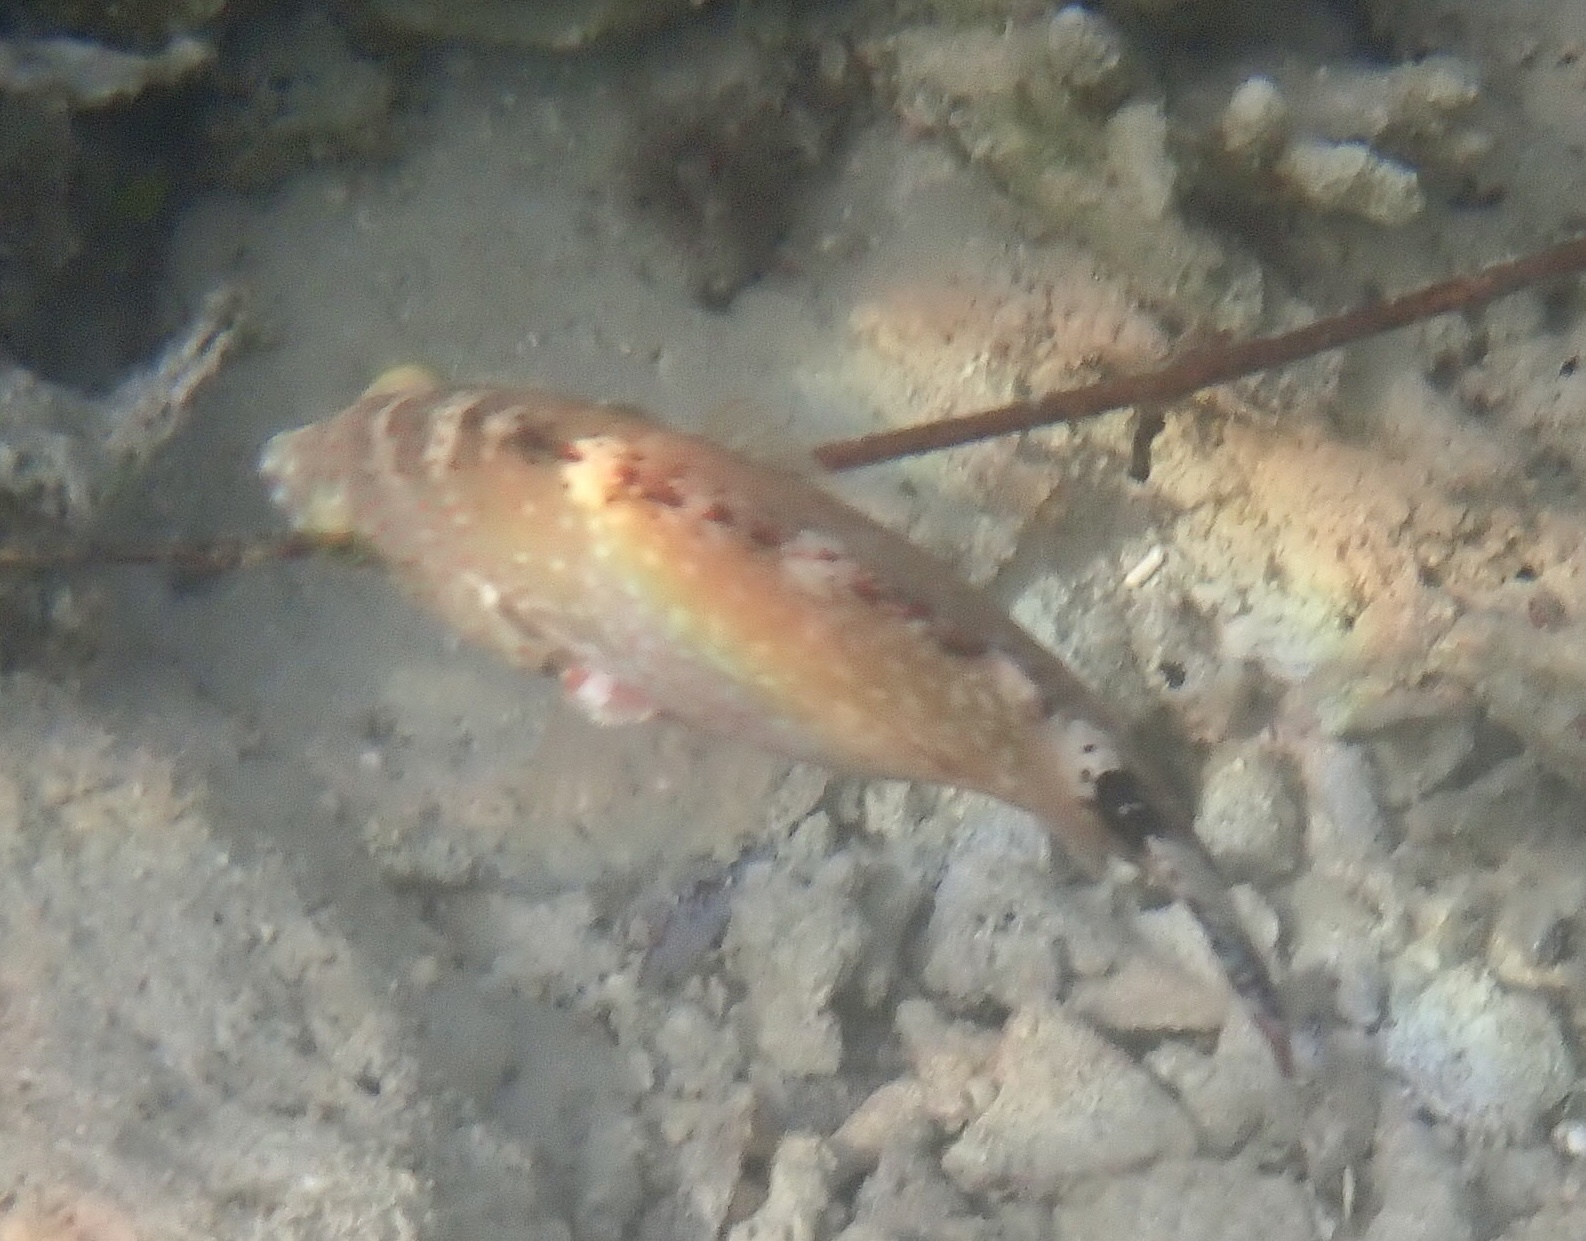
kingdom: Animalia
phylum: Chordata
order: Perciformes
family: Labridae
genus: Cheilinus
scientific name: Cheilinus chlorourus
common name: Floral wrasse
